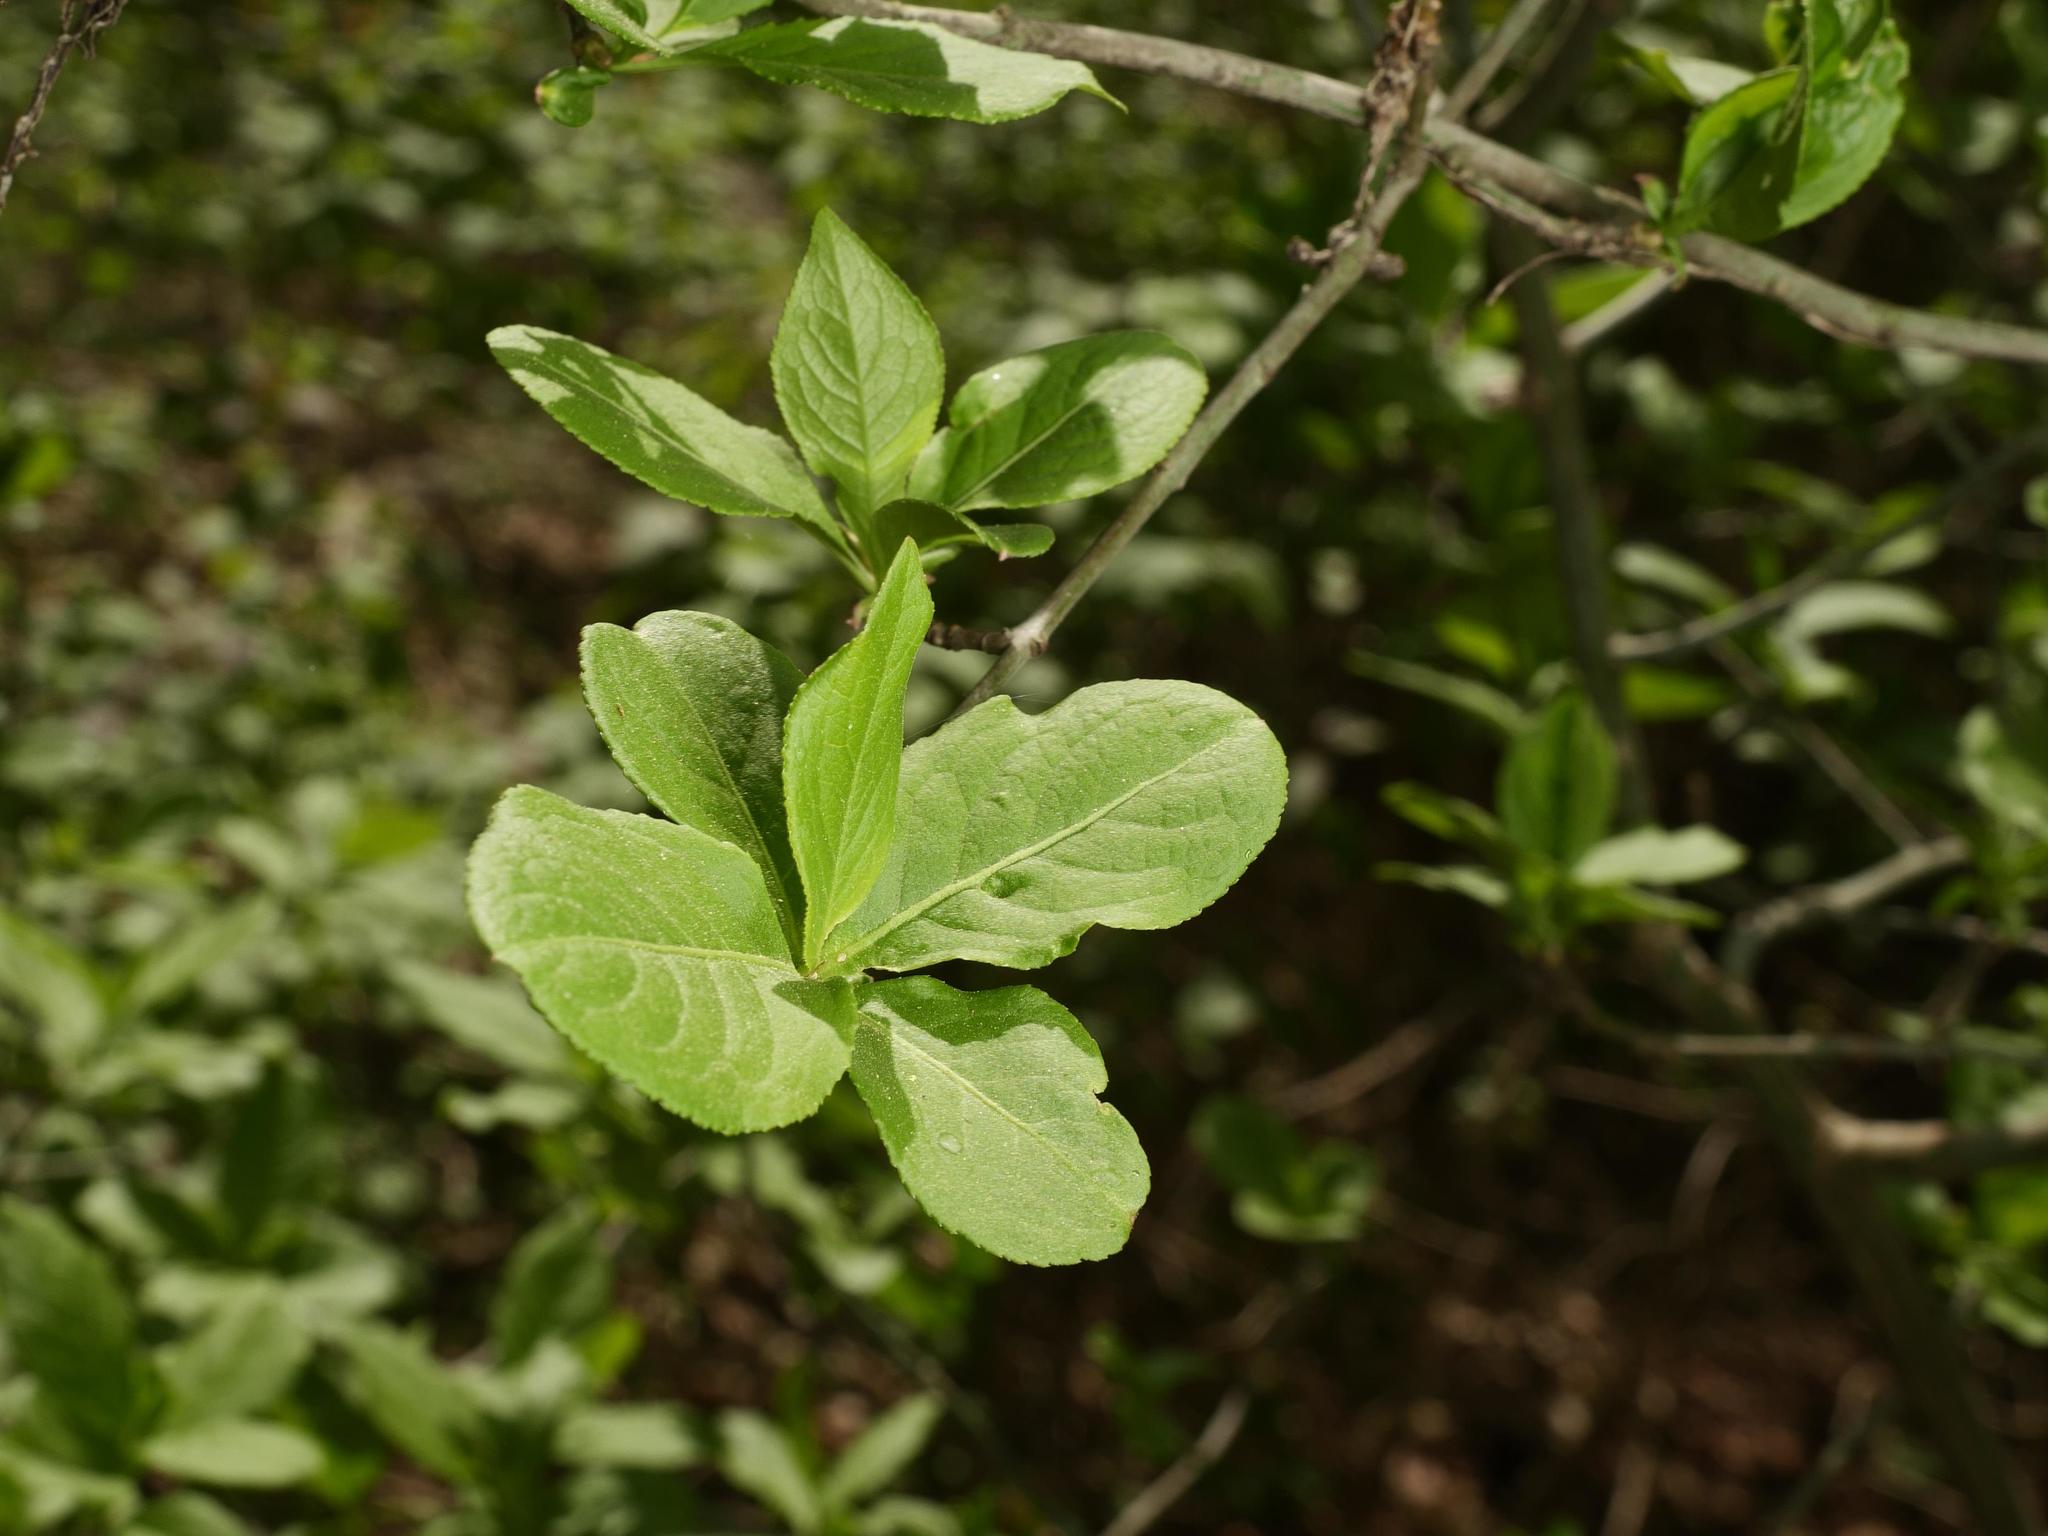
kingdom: Plantae
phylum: Tracheophyta
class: Magnoliopsida
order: Celastrales
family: Celastraceae
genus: Euonymus
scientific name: Euonymus europaeus
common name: Spindle
